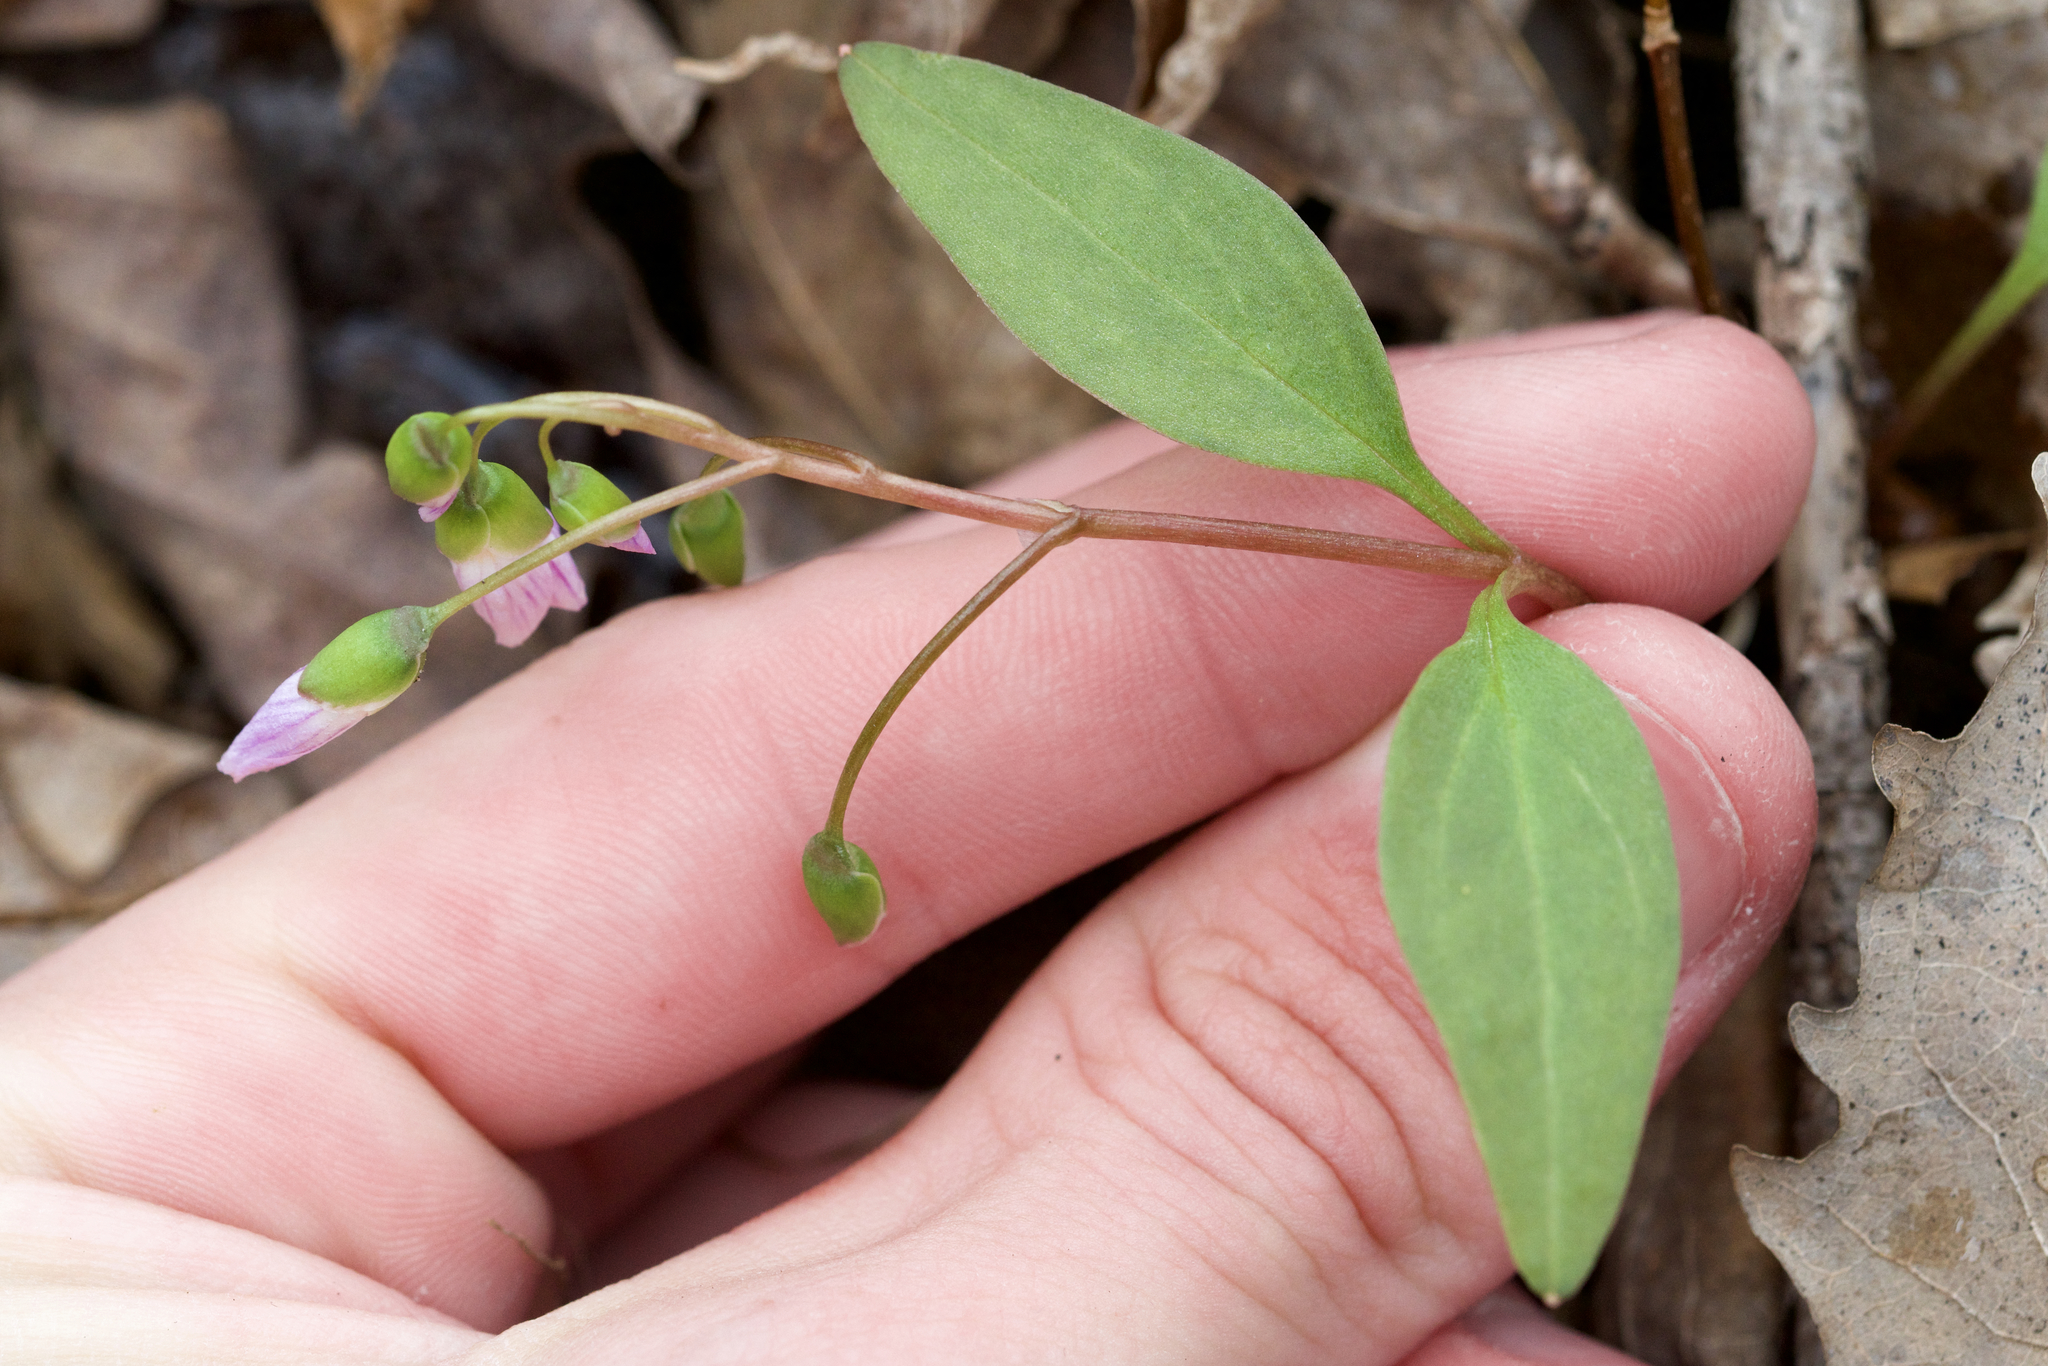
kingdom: Plantae
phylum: Tracheophyta
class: Magnoliopsida
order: Caryophyllales
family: Montiaceae
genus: Claytonia
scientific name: Claytonia caroliniana
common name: Carolina spring beauty
